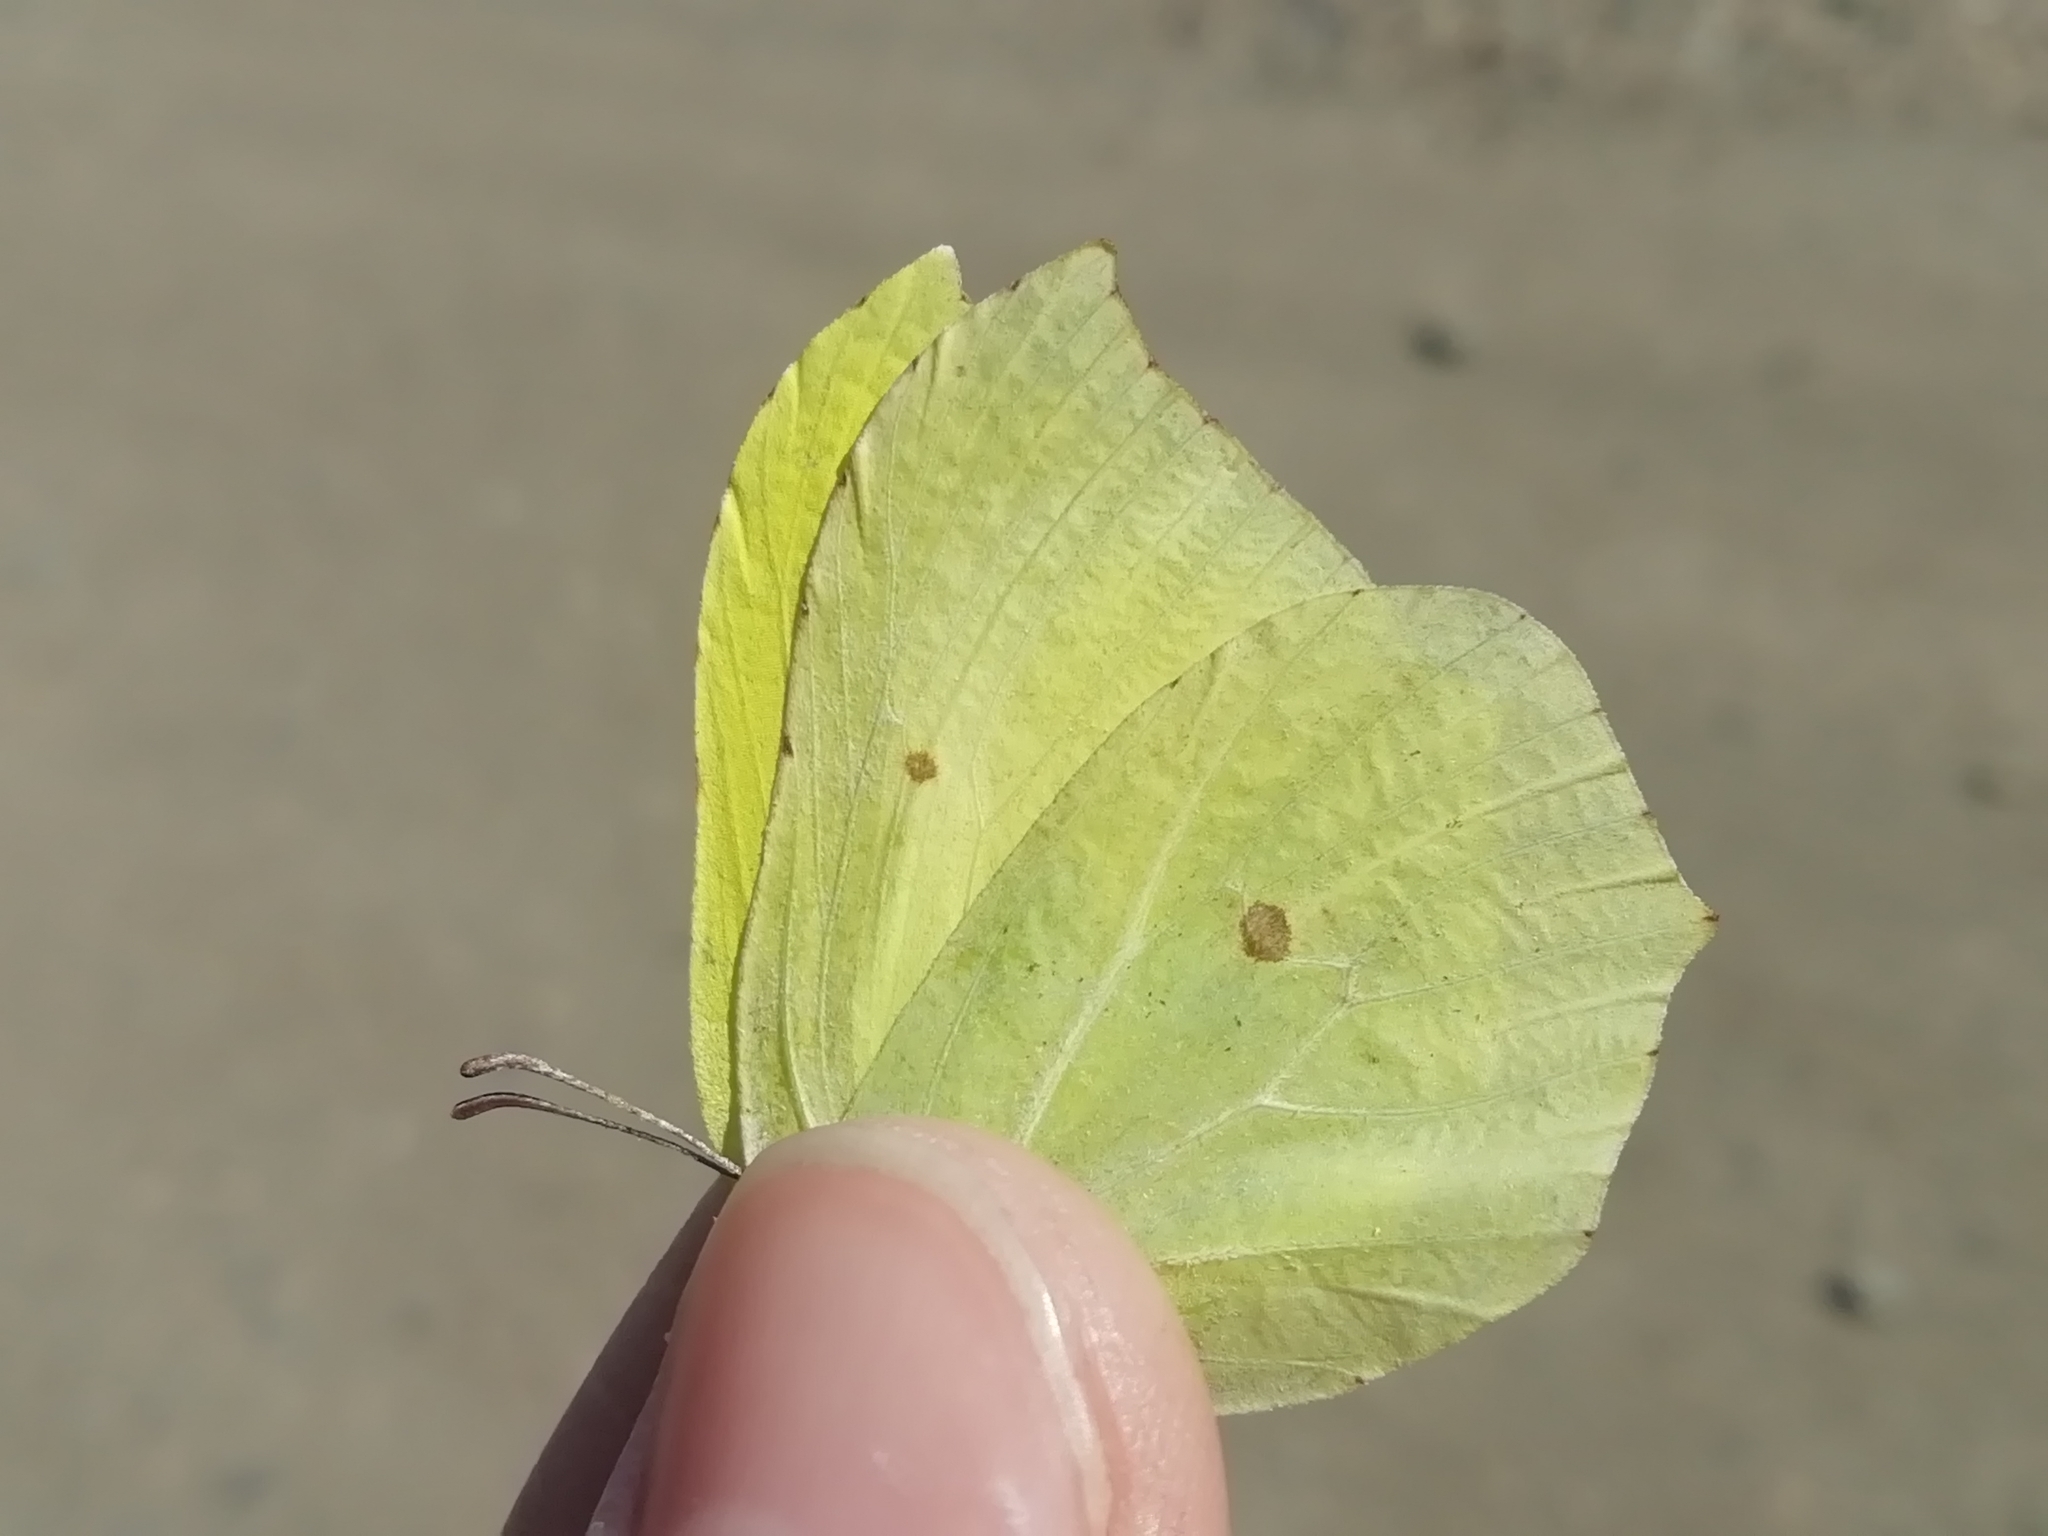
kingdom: Animalia
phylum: Arthropoda
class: Insecta
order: Lepidoptera
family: Pieridae
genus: Gonepteryx
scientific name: Gonepteryx rhamni
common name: Brimstone
